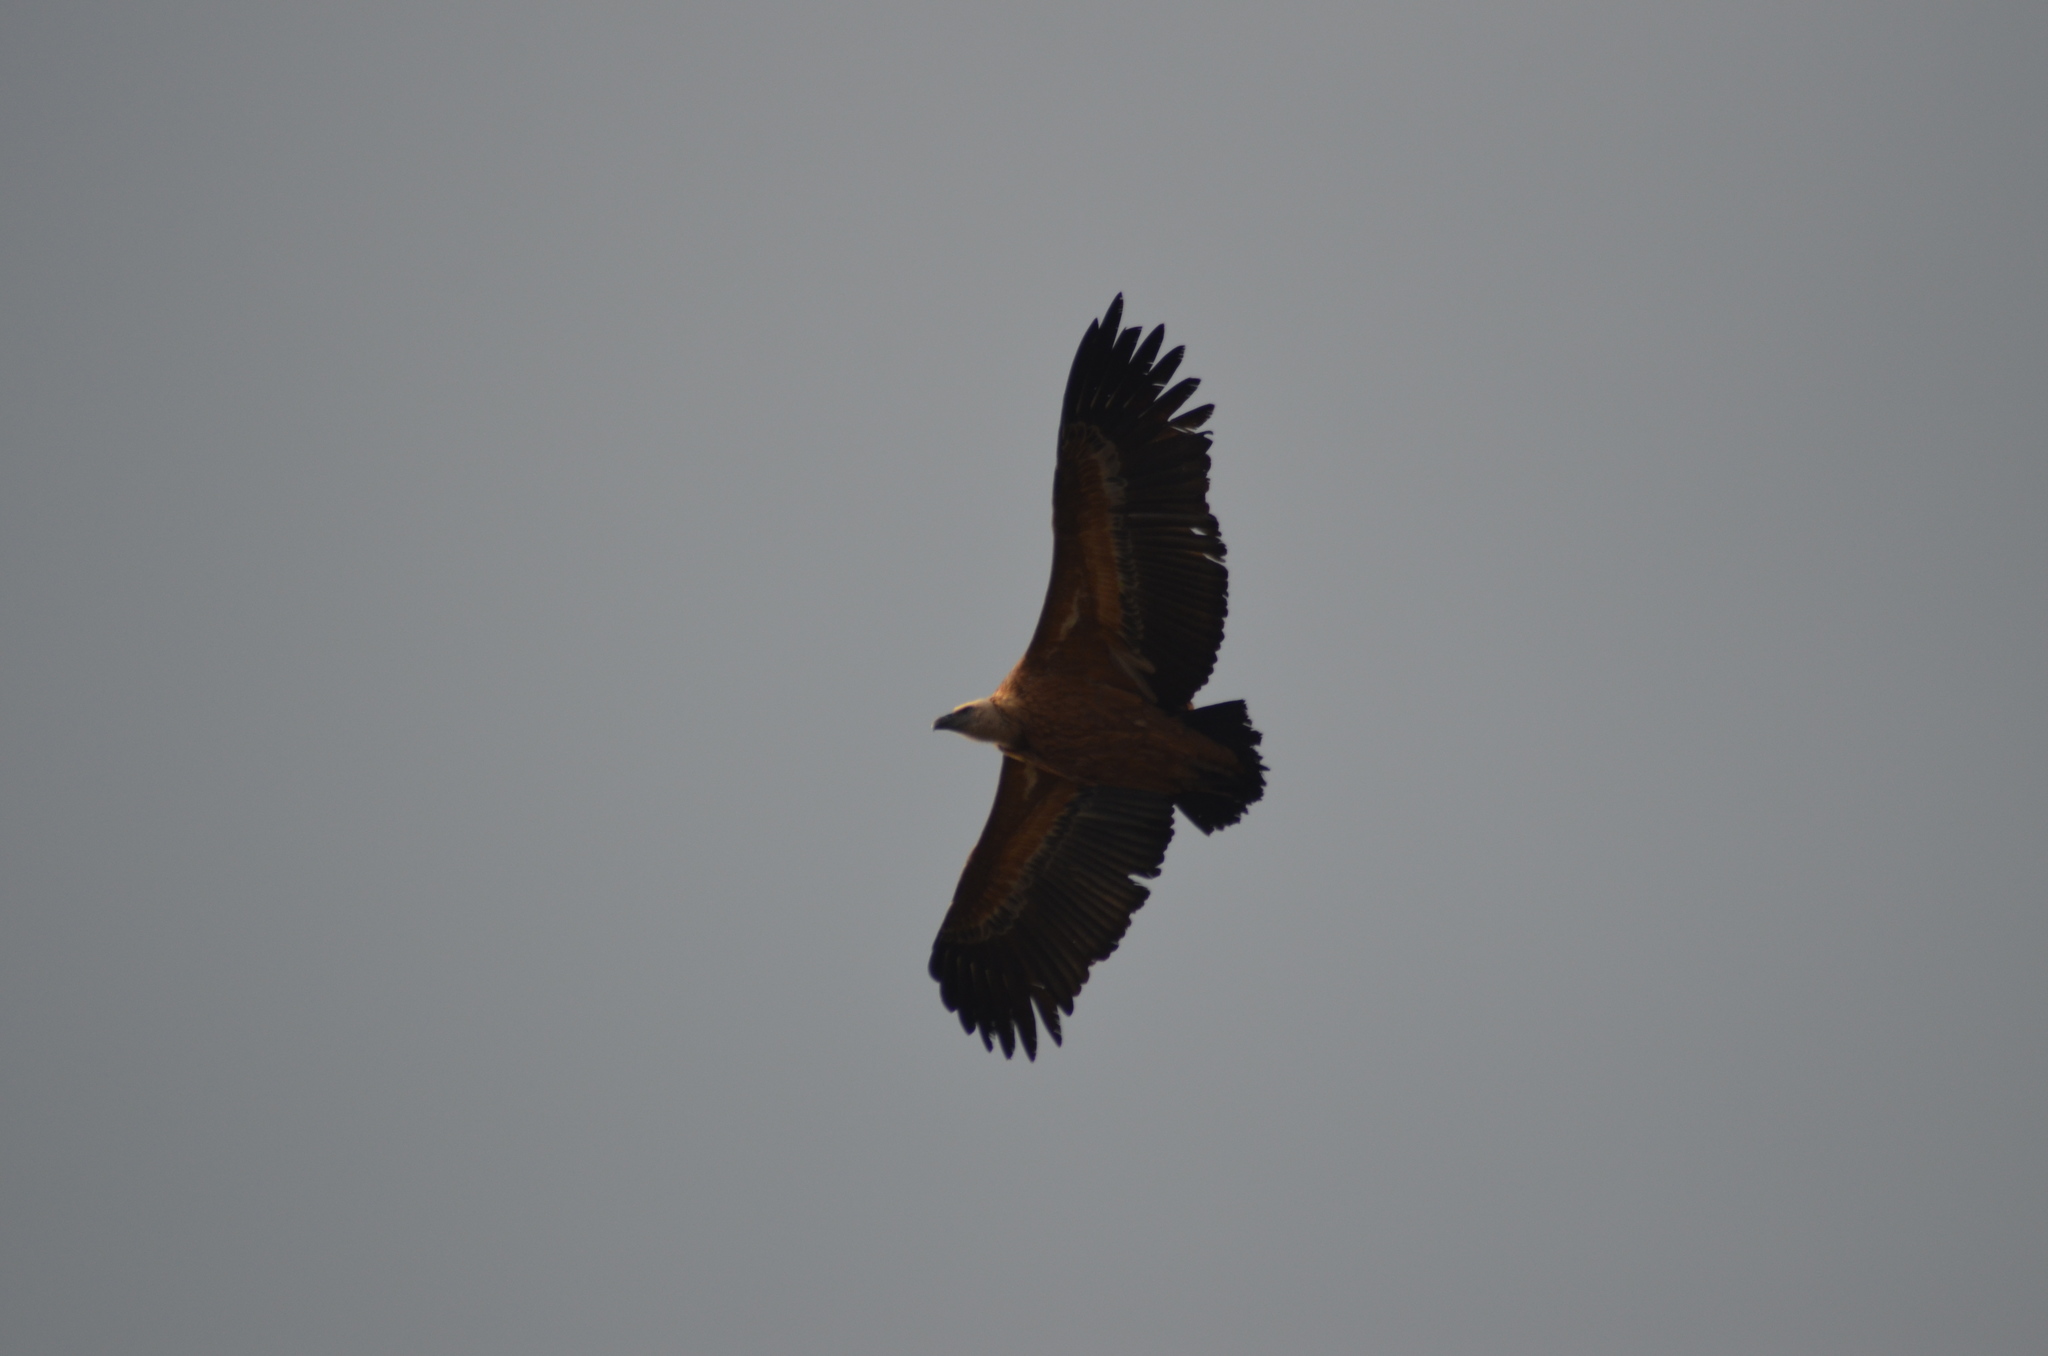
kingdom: Animalia
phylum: Chordata
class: Aves
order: Accipitriformes
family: Accipitridae
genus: Gyps
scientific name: Gyps fulvus
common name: Griffon vulture
